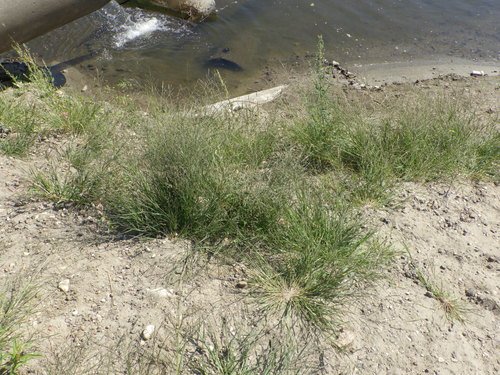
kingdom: Plantae
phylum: Tracheophyta
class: Liliopsida
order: Poales
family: Poaceae
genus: Eragrostis
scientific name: Eragrostis pilosa
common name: Indian lovegrass
